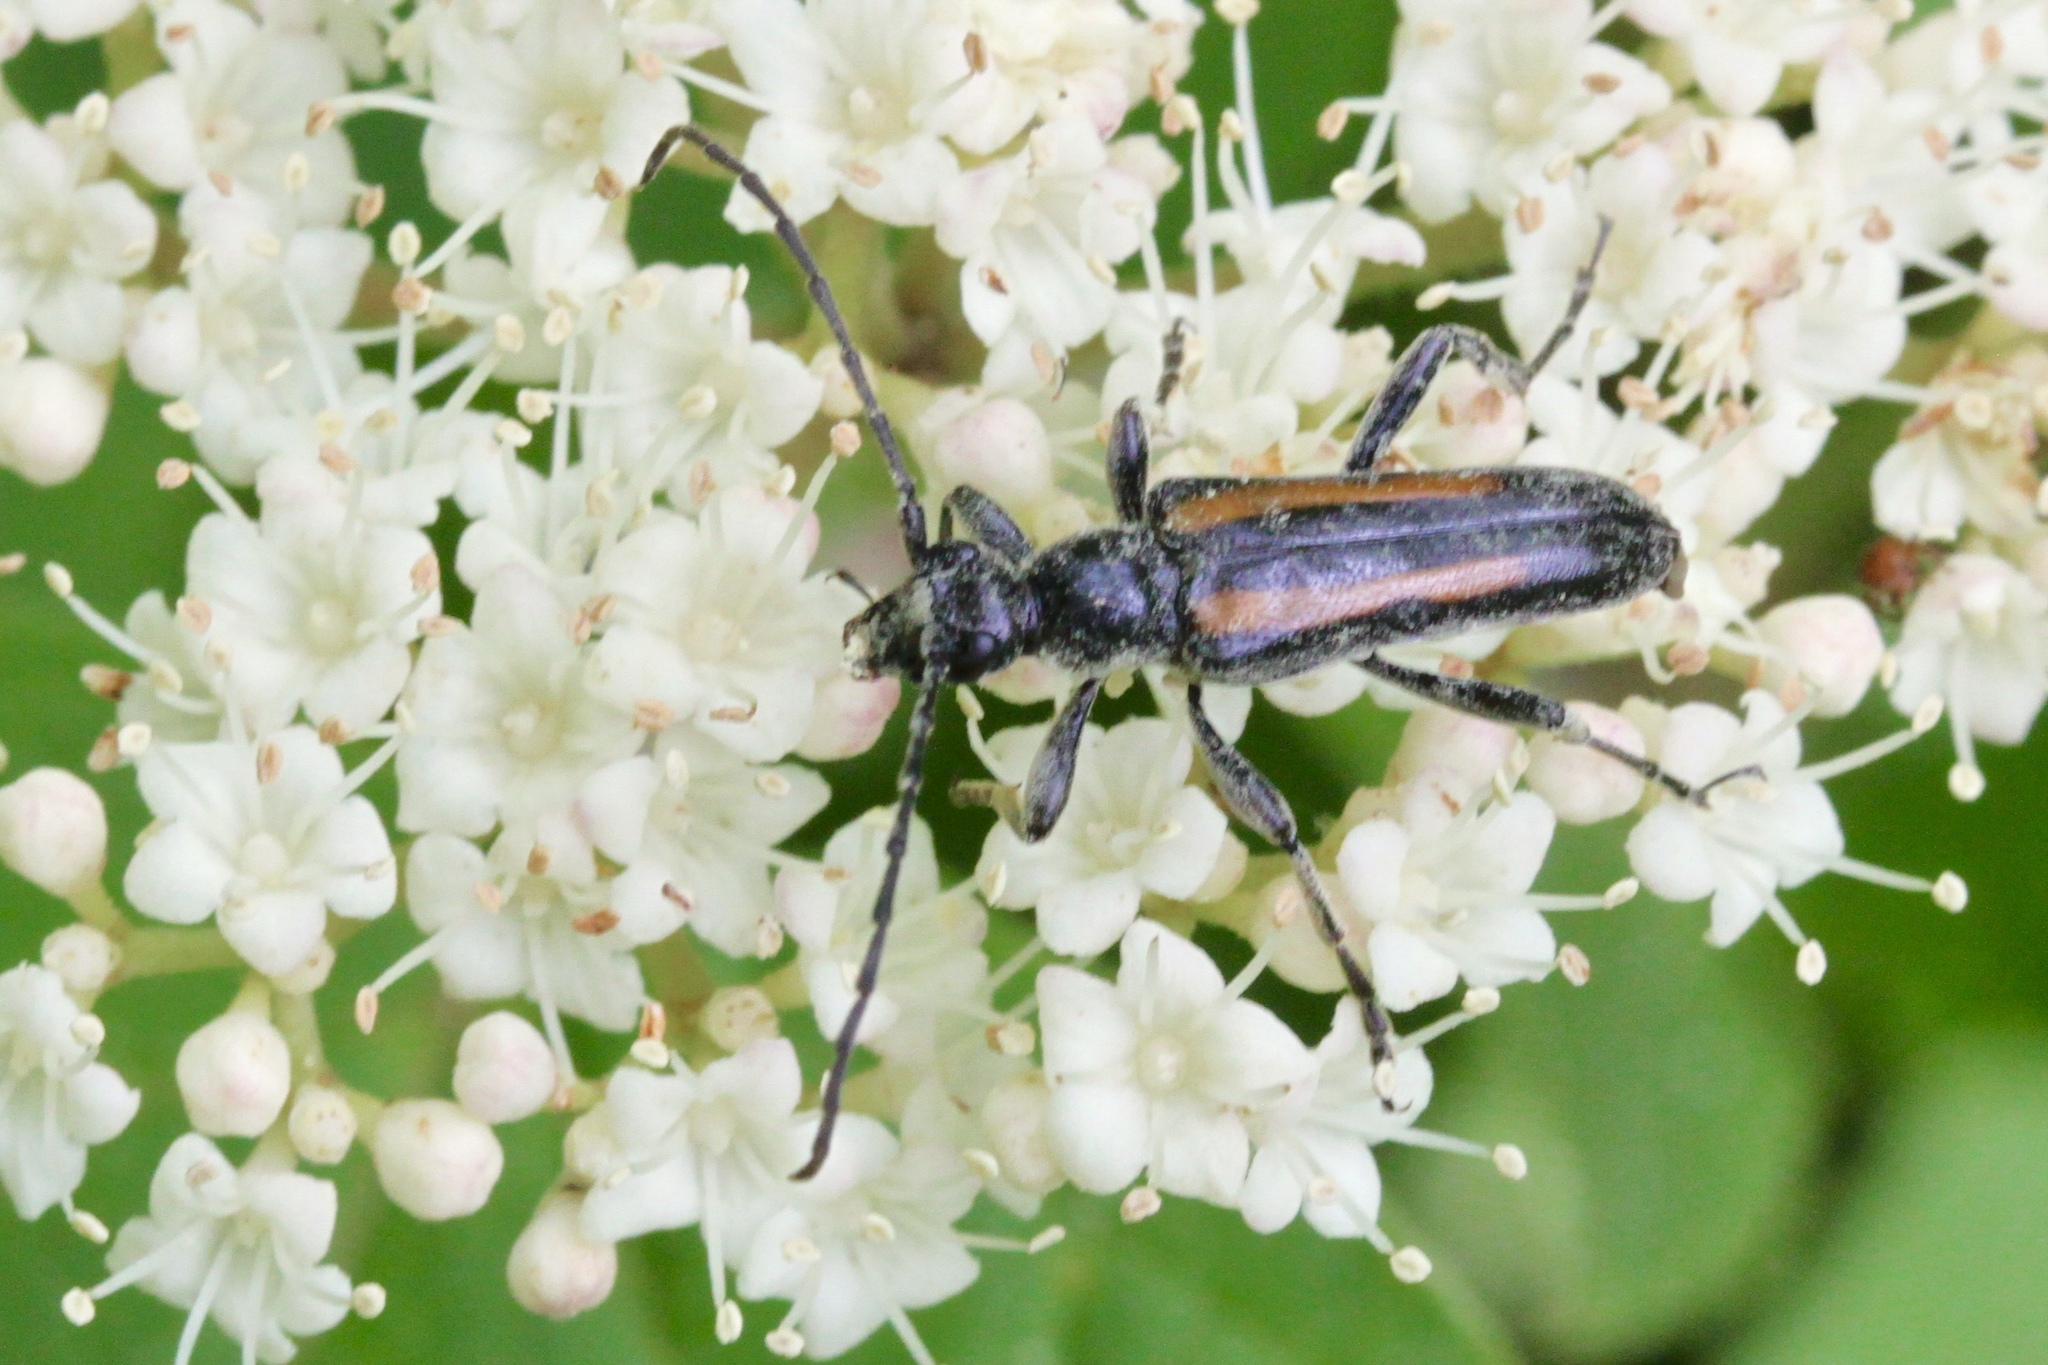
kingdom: Animalia
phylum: Arthropoda
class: Insecta
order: Coleoptera
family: Cerambycidae
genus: Strangalepta
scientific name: Strangalepta abbreviata
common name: Strangalepta flower longhorn beetle
